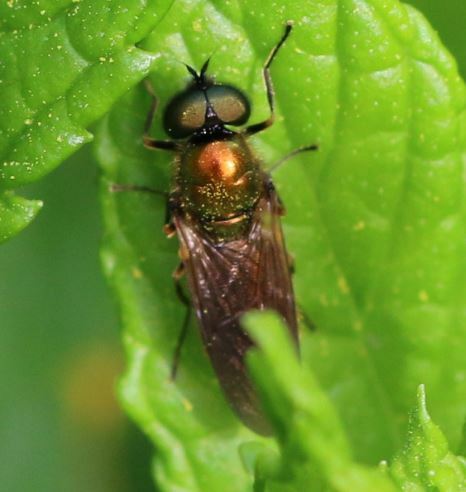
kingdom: Animalia
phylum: Arthropoda
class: Insecta
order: Diptera
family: Stratiomyidae
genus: Chloromyia
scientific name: Chloromyia formosa
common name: Soldier fly
